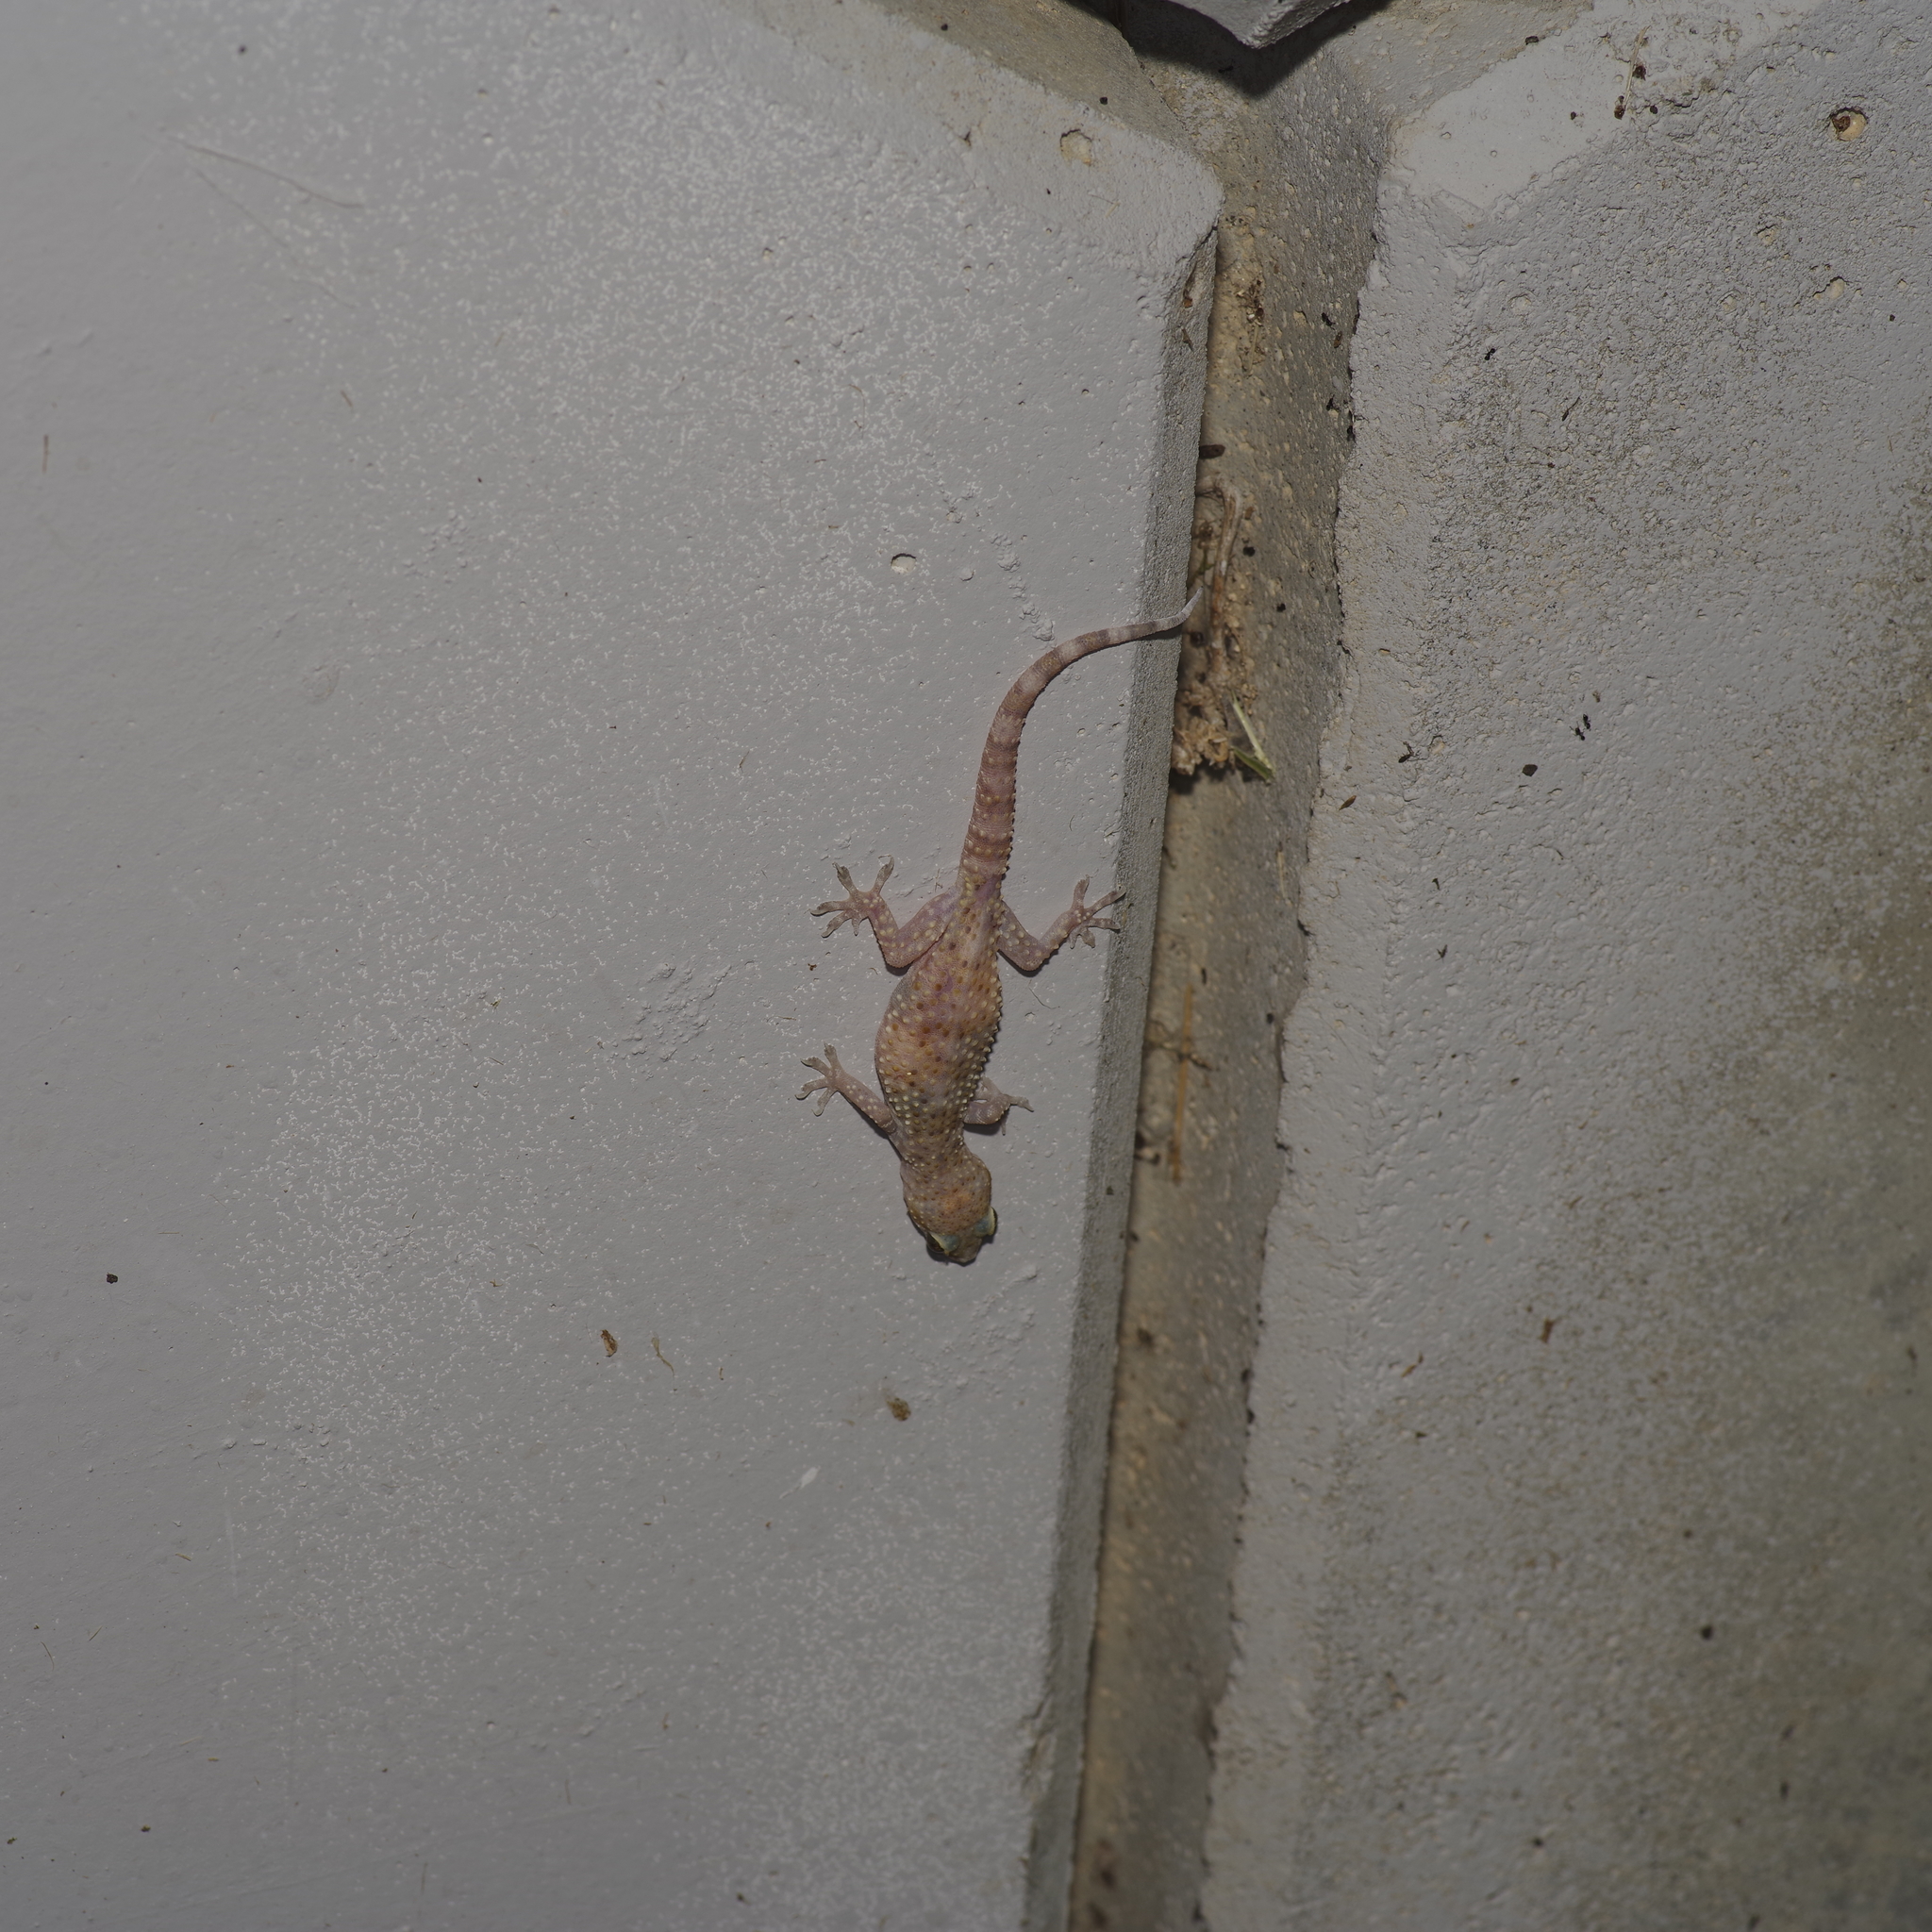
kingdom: Animalia
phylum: Chordata
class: Squamata
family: Gekkonidae
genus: Hemidactylus
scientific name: Hemidactylus turcicus
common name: Turkish gecko
